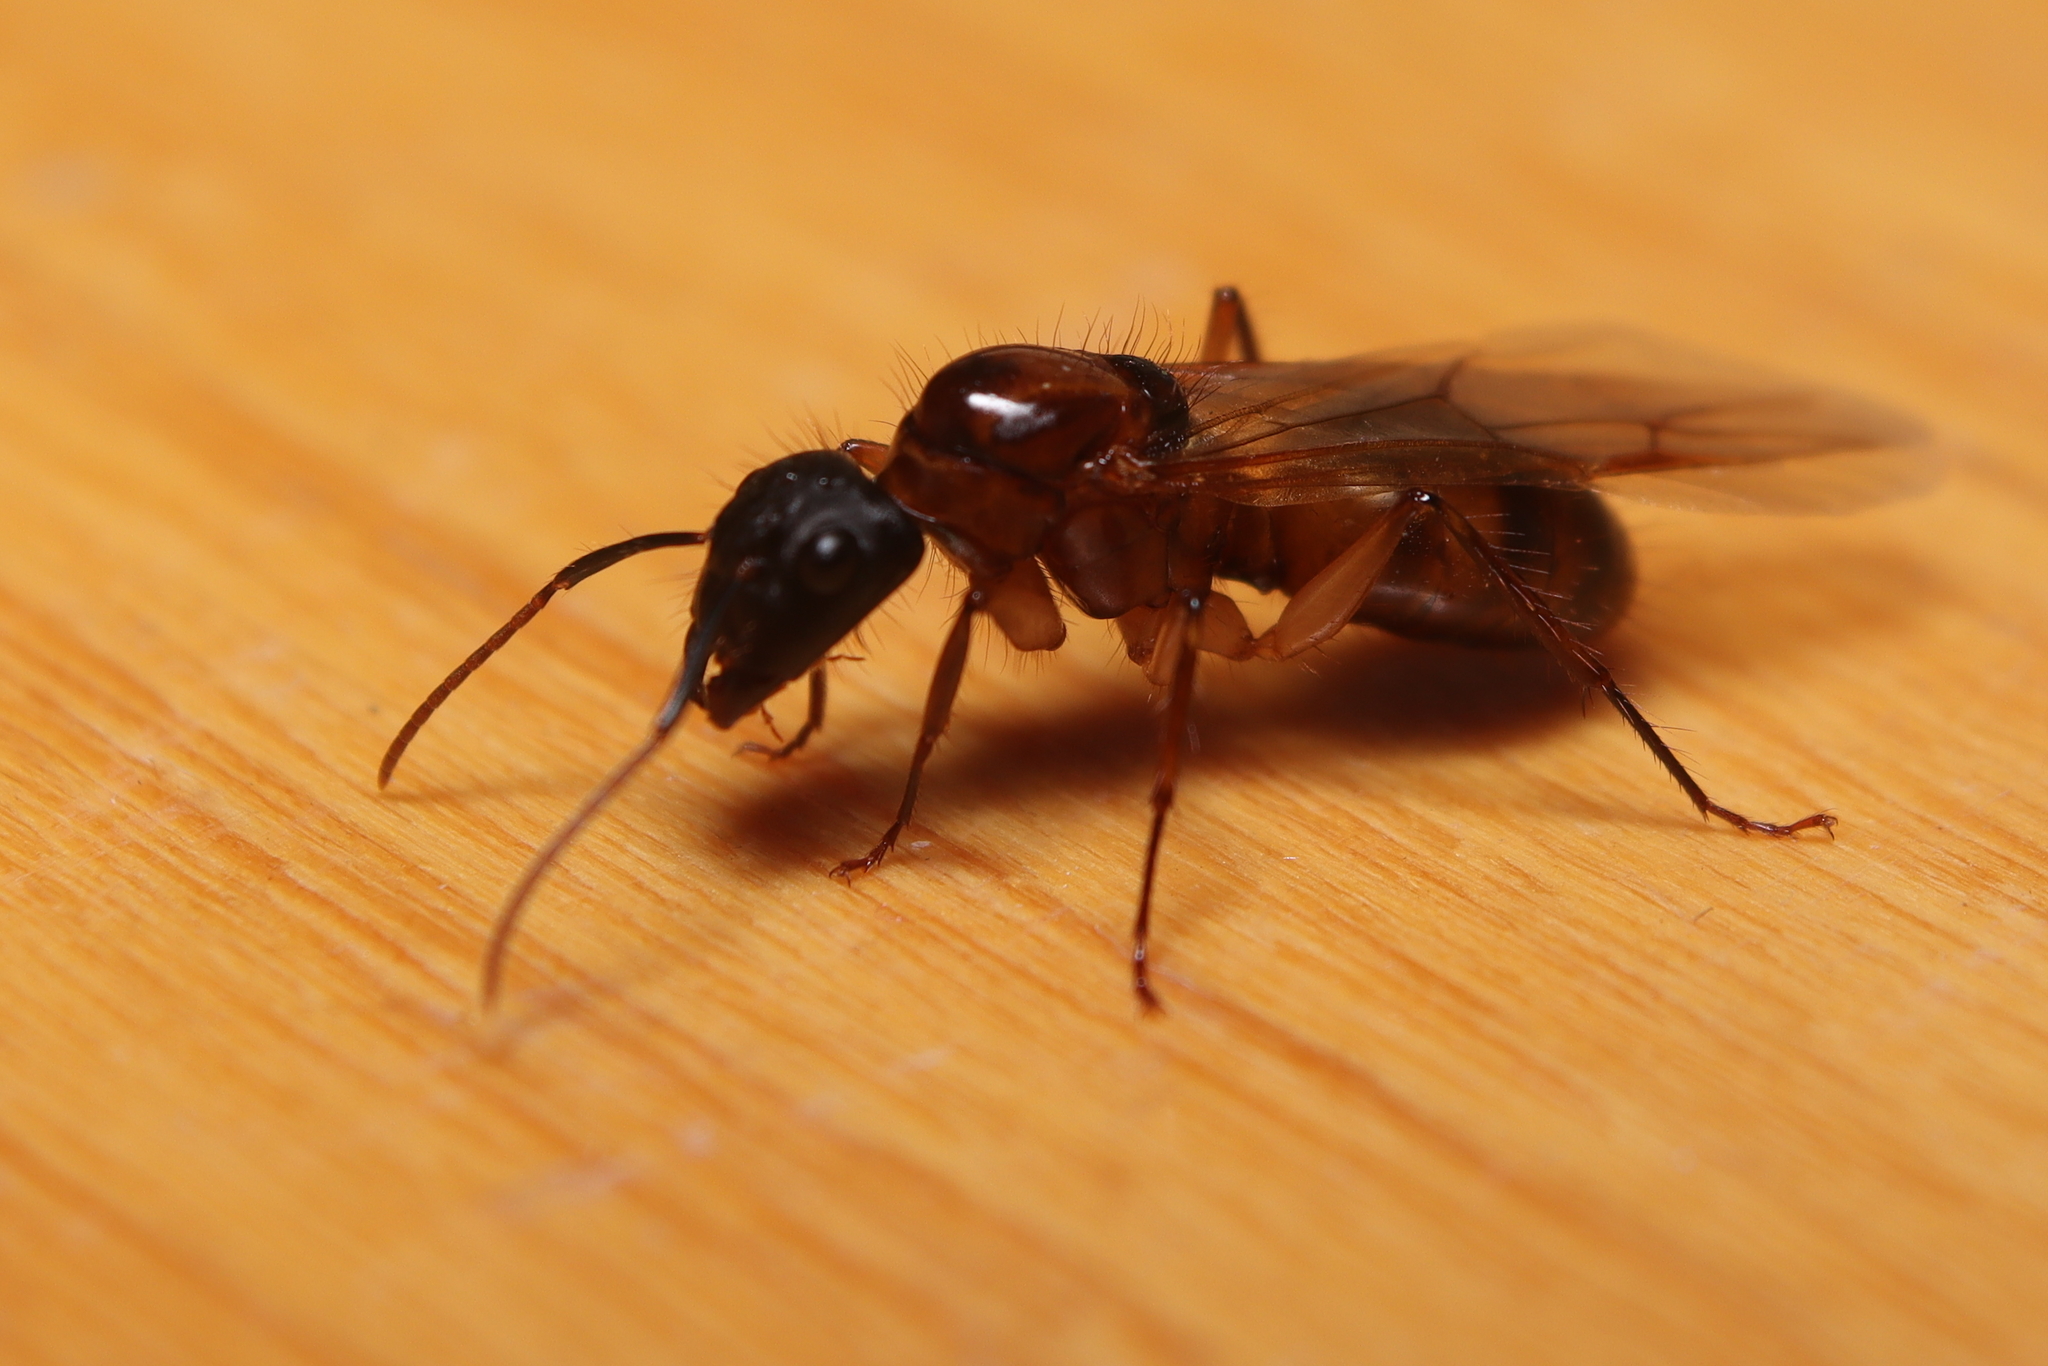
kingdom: Animalia
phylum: Arthropoda
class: Insecta
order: Hymenoptera
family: Formicidae
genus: Camponotus
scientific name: Camponotus atriceps
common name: Florida carpenter ant
